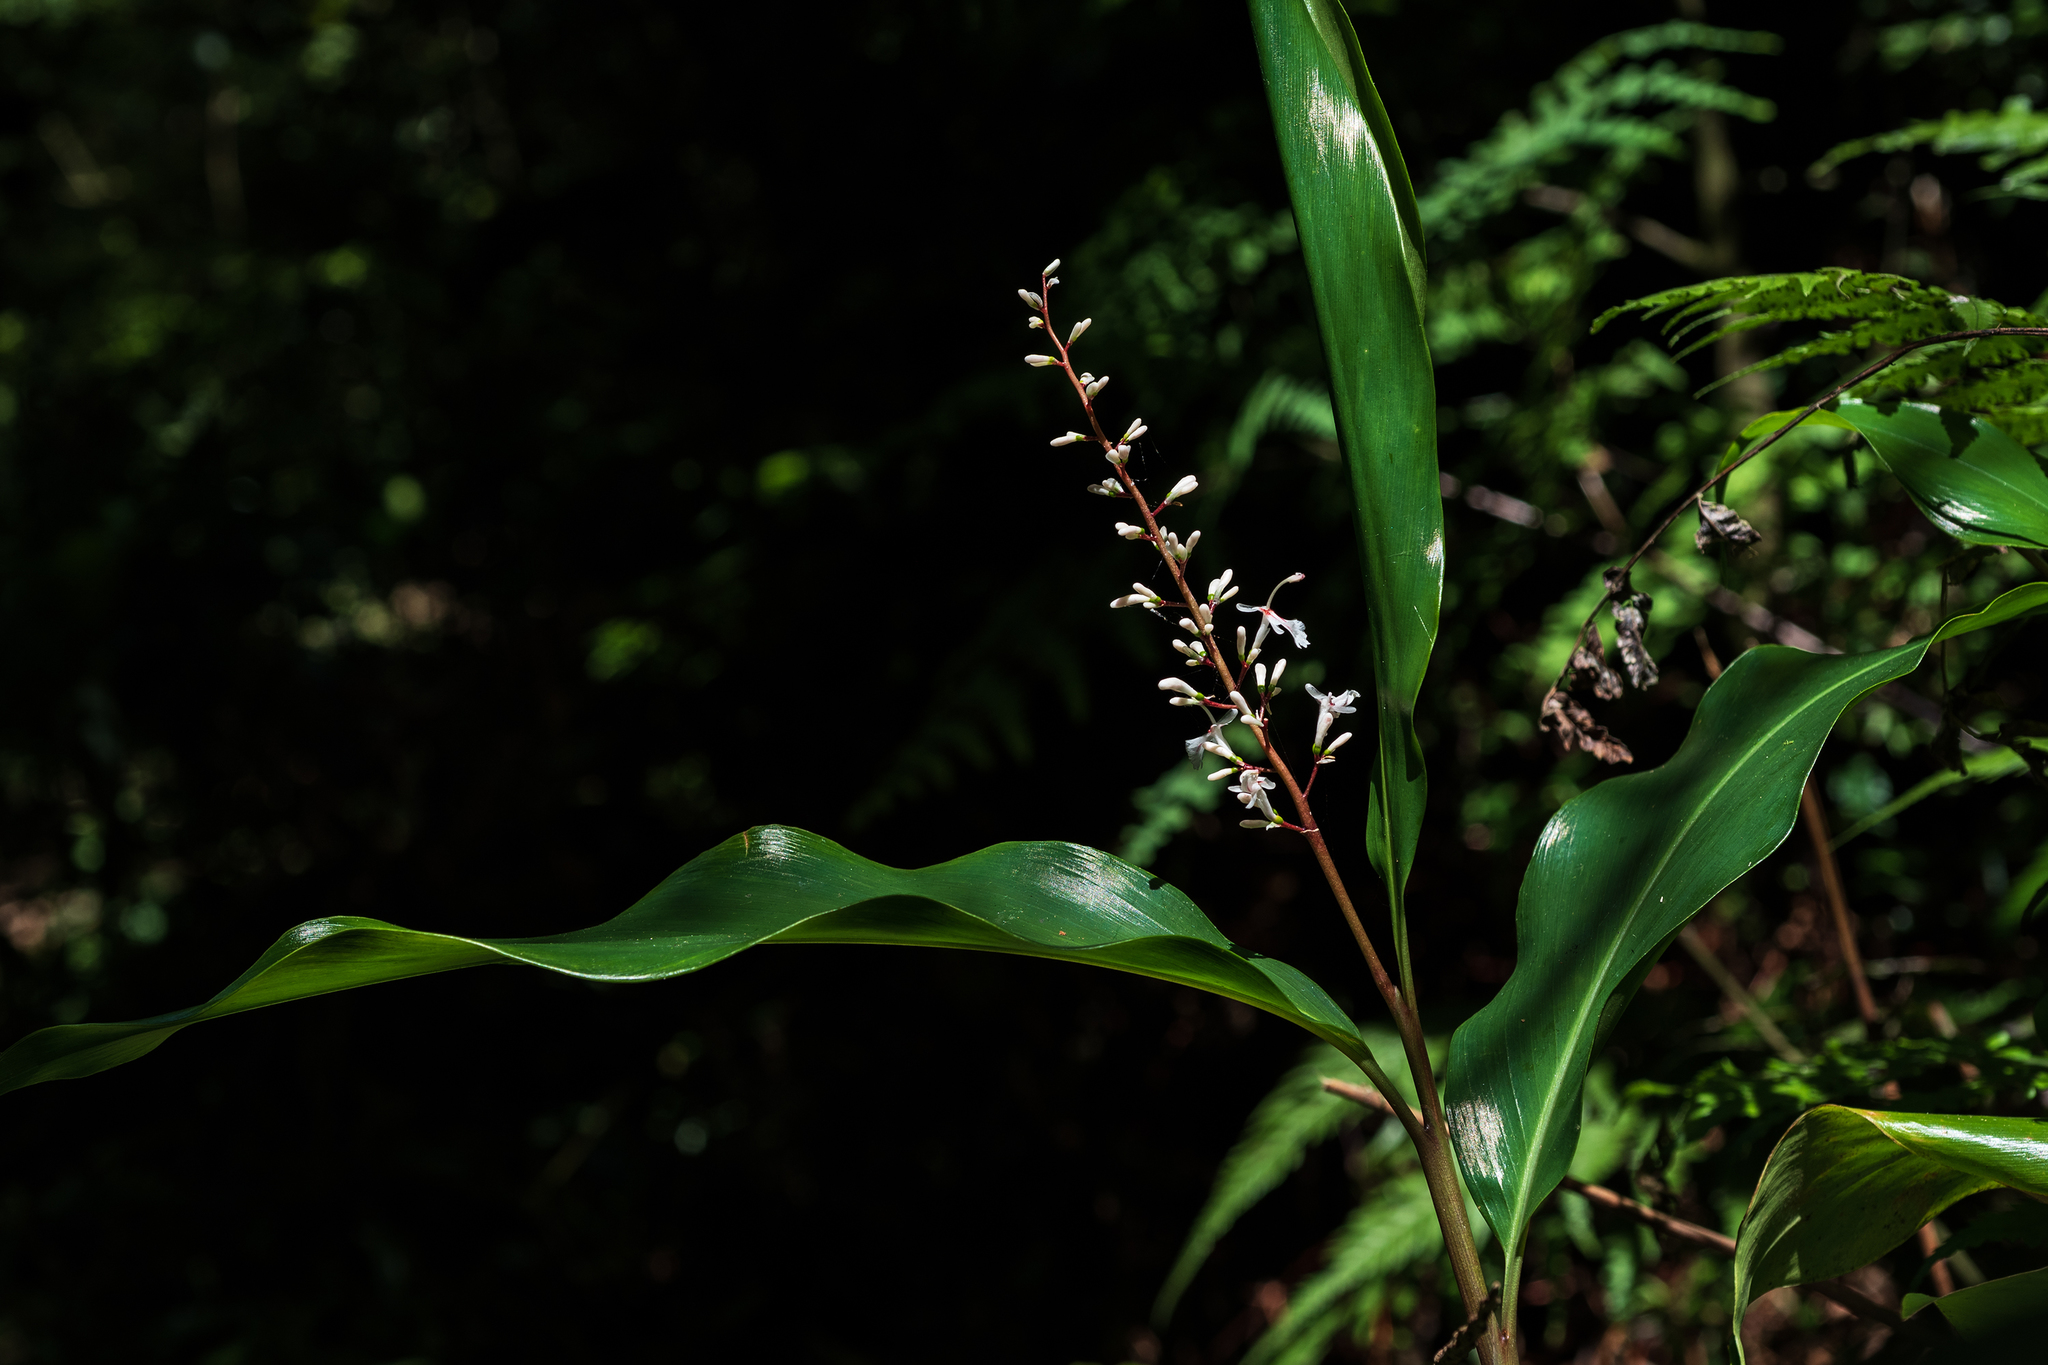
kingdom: Plantae
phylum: Tracheophyta
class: Liliopsida
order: Zingiberales
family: Zingiberaceae
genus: Alpinia
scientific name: Alpinia intermedia
